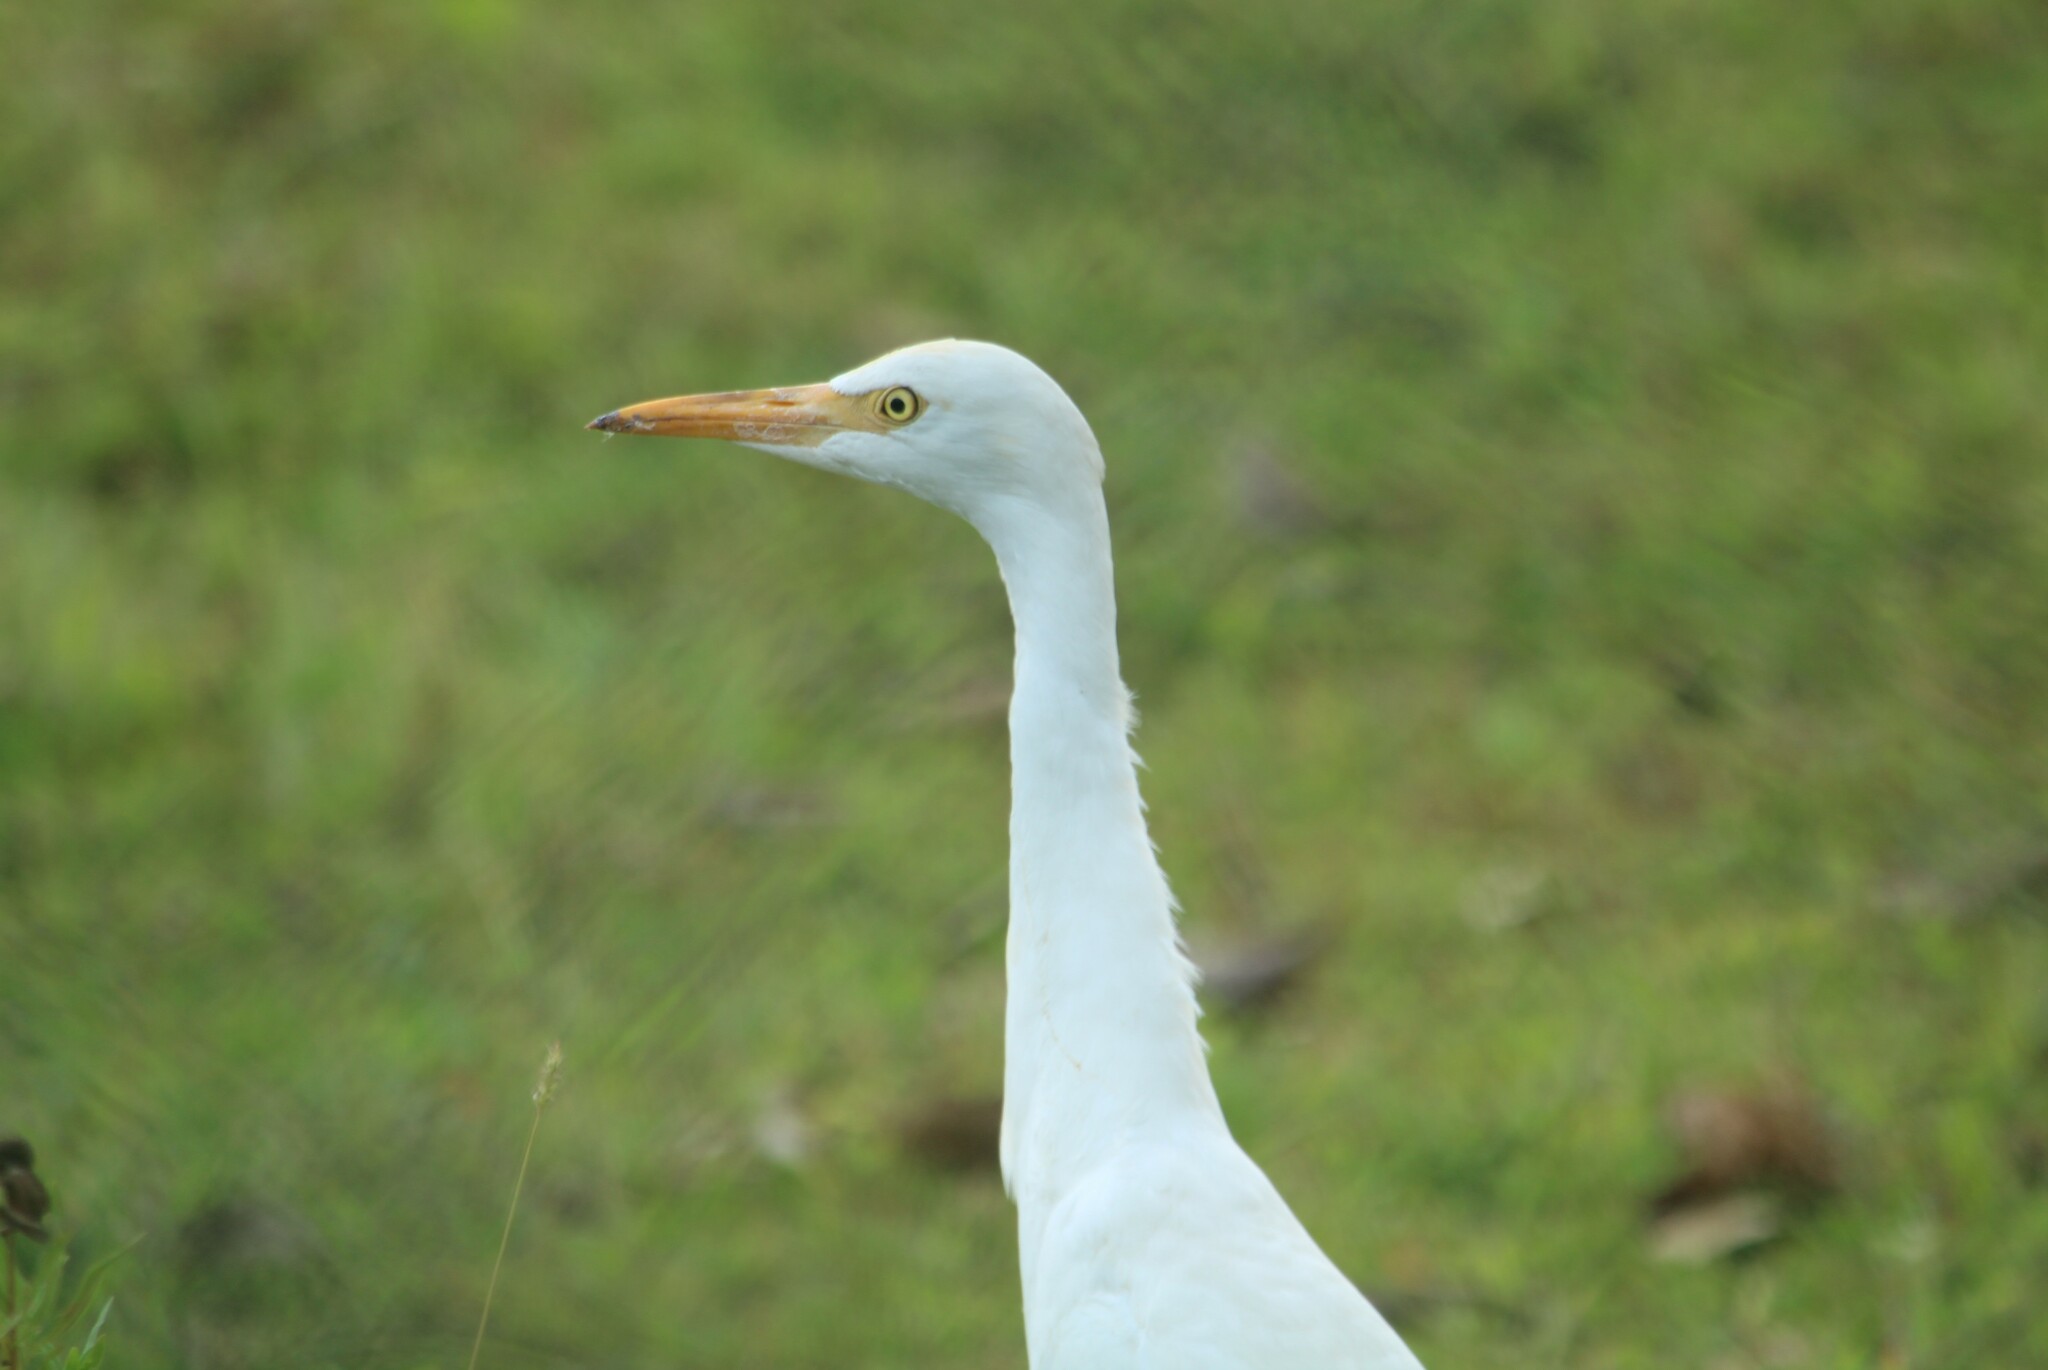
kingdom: Animalia
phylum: Chordata
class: Aves
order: Pelecaniformes
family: Ardeidae
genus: Bubulcus
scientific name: Bubulcus coromandus
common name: Eastern cattle egret
